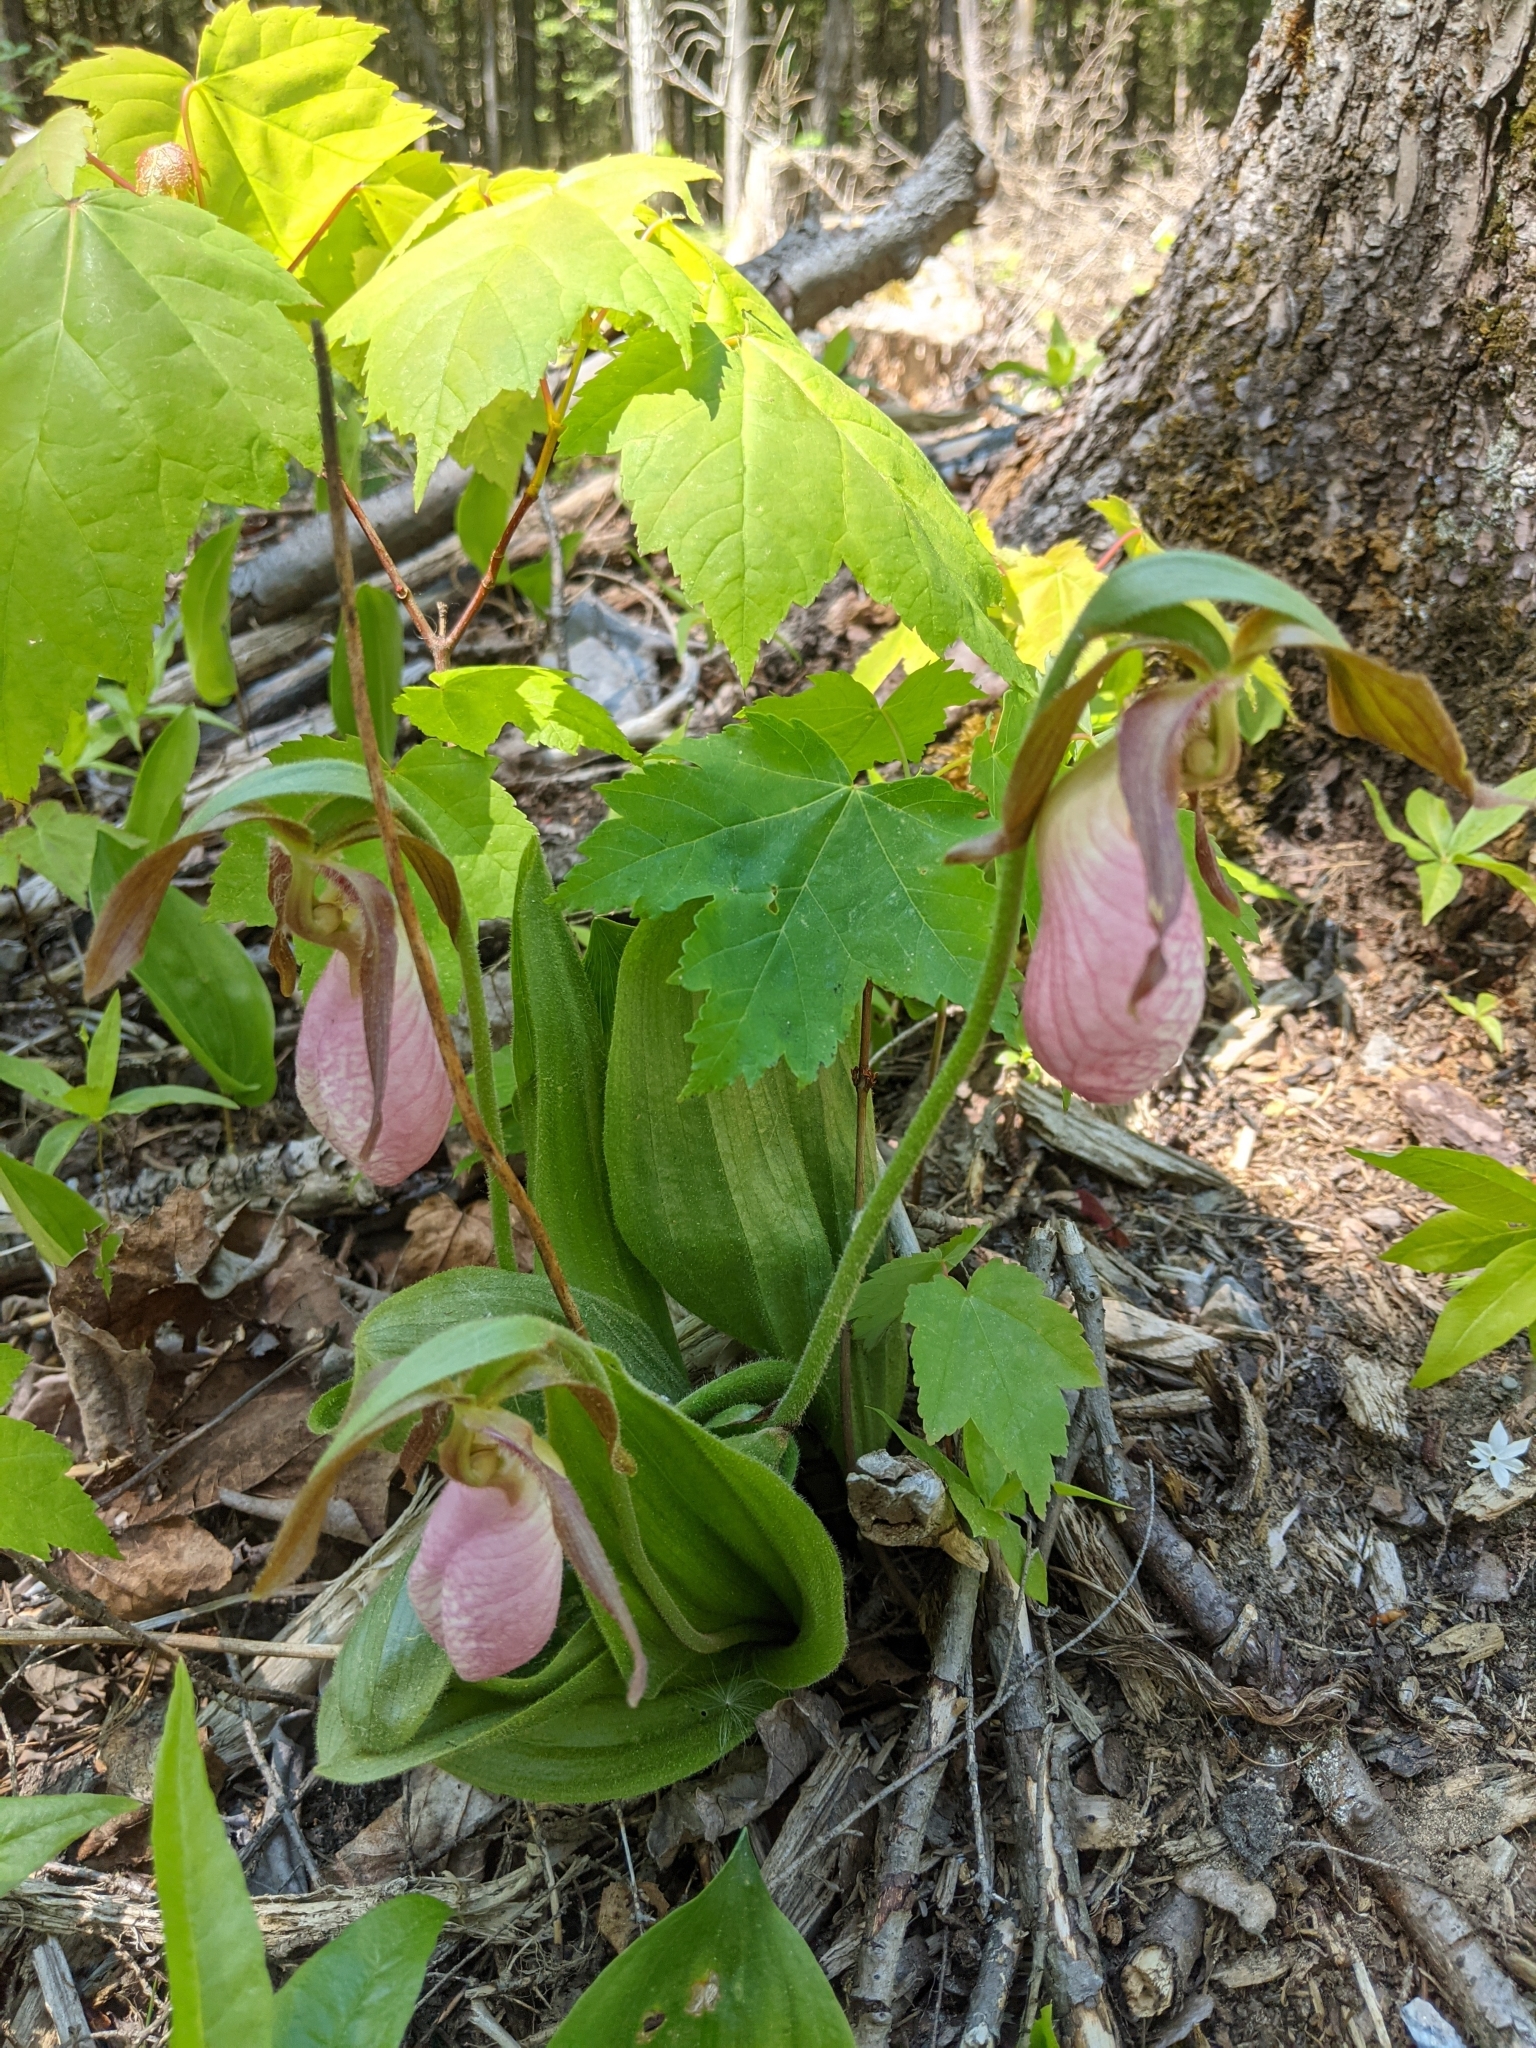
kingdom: Plantae
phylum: Tracheophyta
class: Liliopsida
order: Asparagales
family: Orchidaceae
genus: Cypripedium
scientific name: Cypripedium acaule
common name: Pink lady's-slipper
